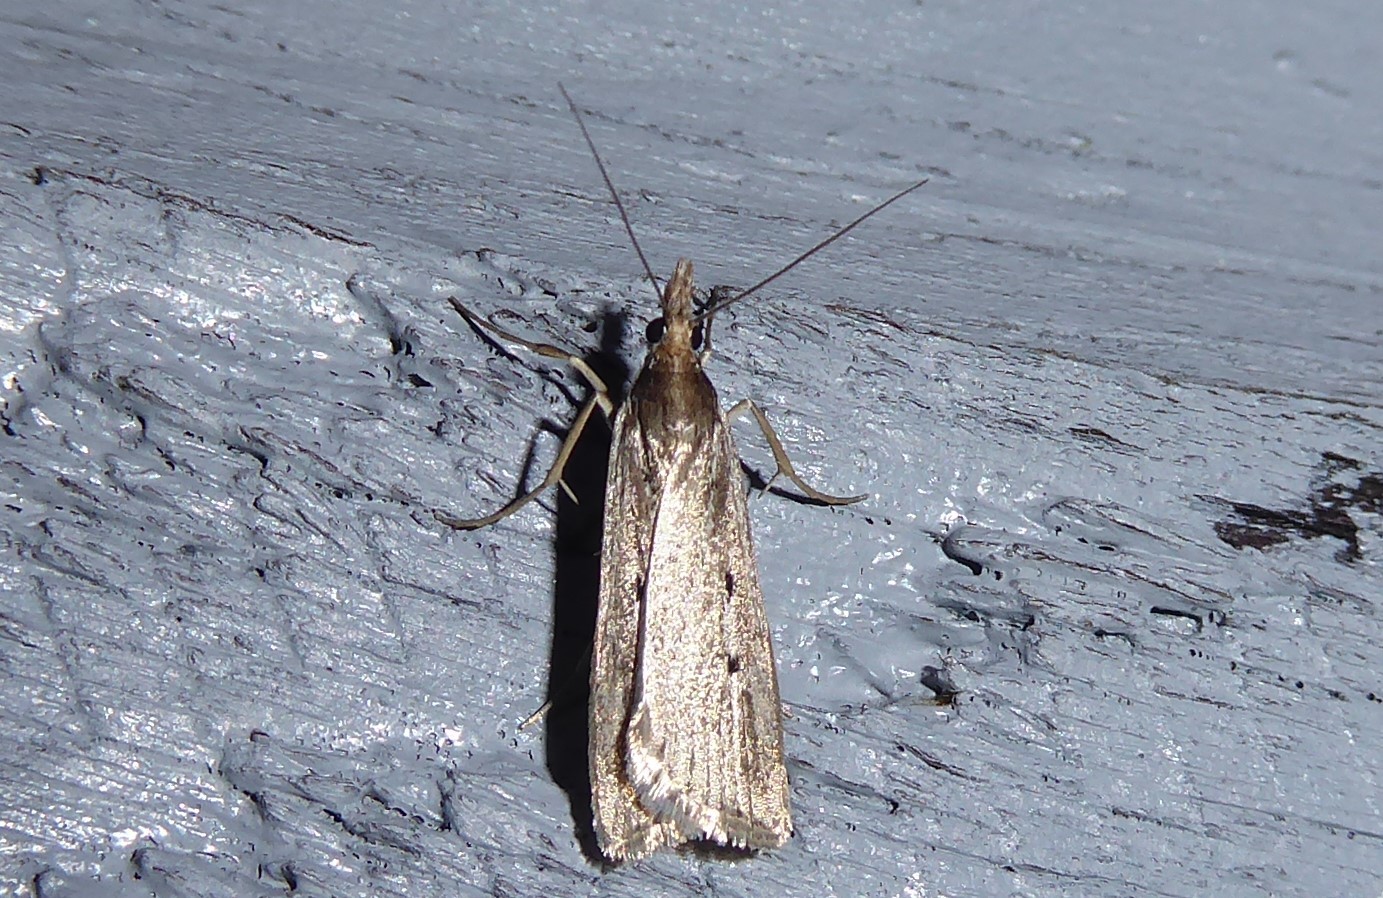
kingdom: Animalia
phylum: Arthropoda
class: Insecta
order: Lepidoptera
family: Crambidae
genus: Eudonia
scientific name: Eudonia sabulosella
